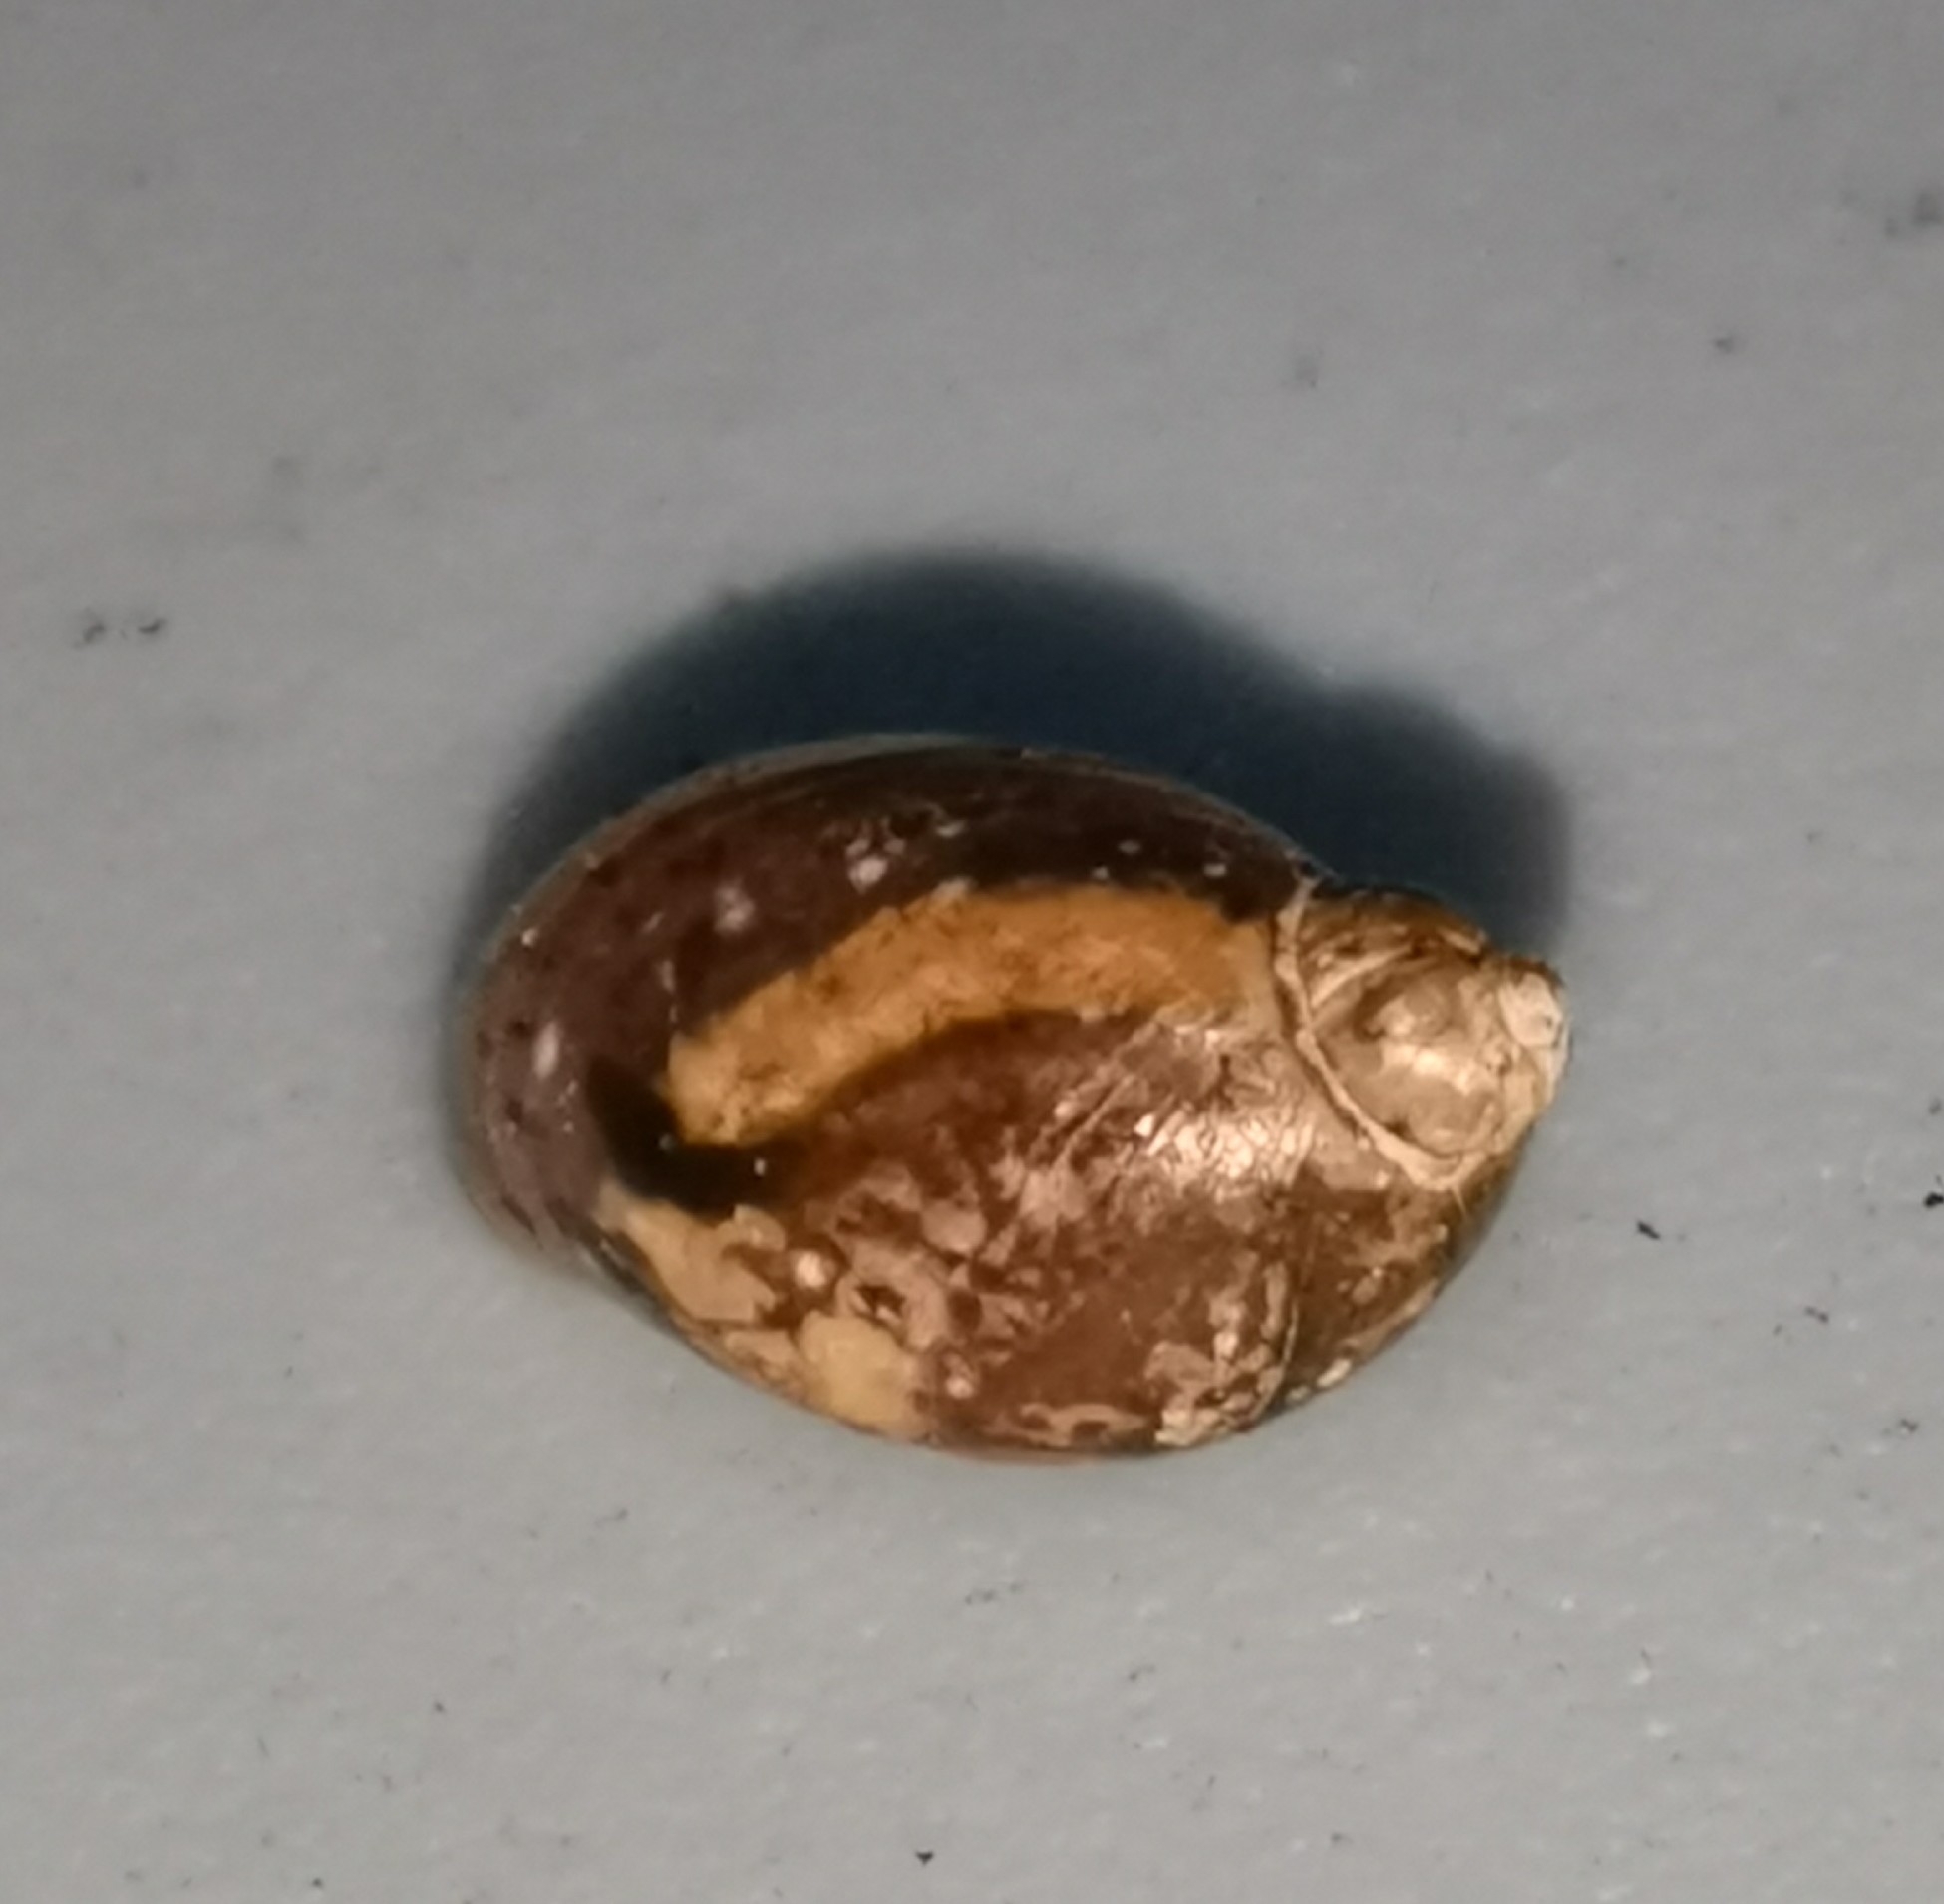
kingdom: Animalia
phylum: Mollusca
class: Gastropoda
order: Stylommatophora
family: Succineidae
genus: Succinea
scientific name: Succinea putris
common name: European ambersnail
